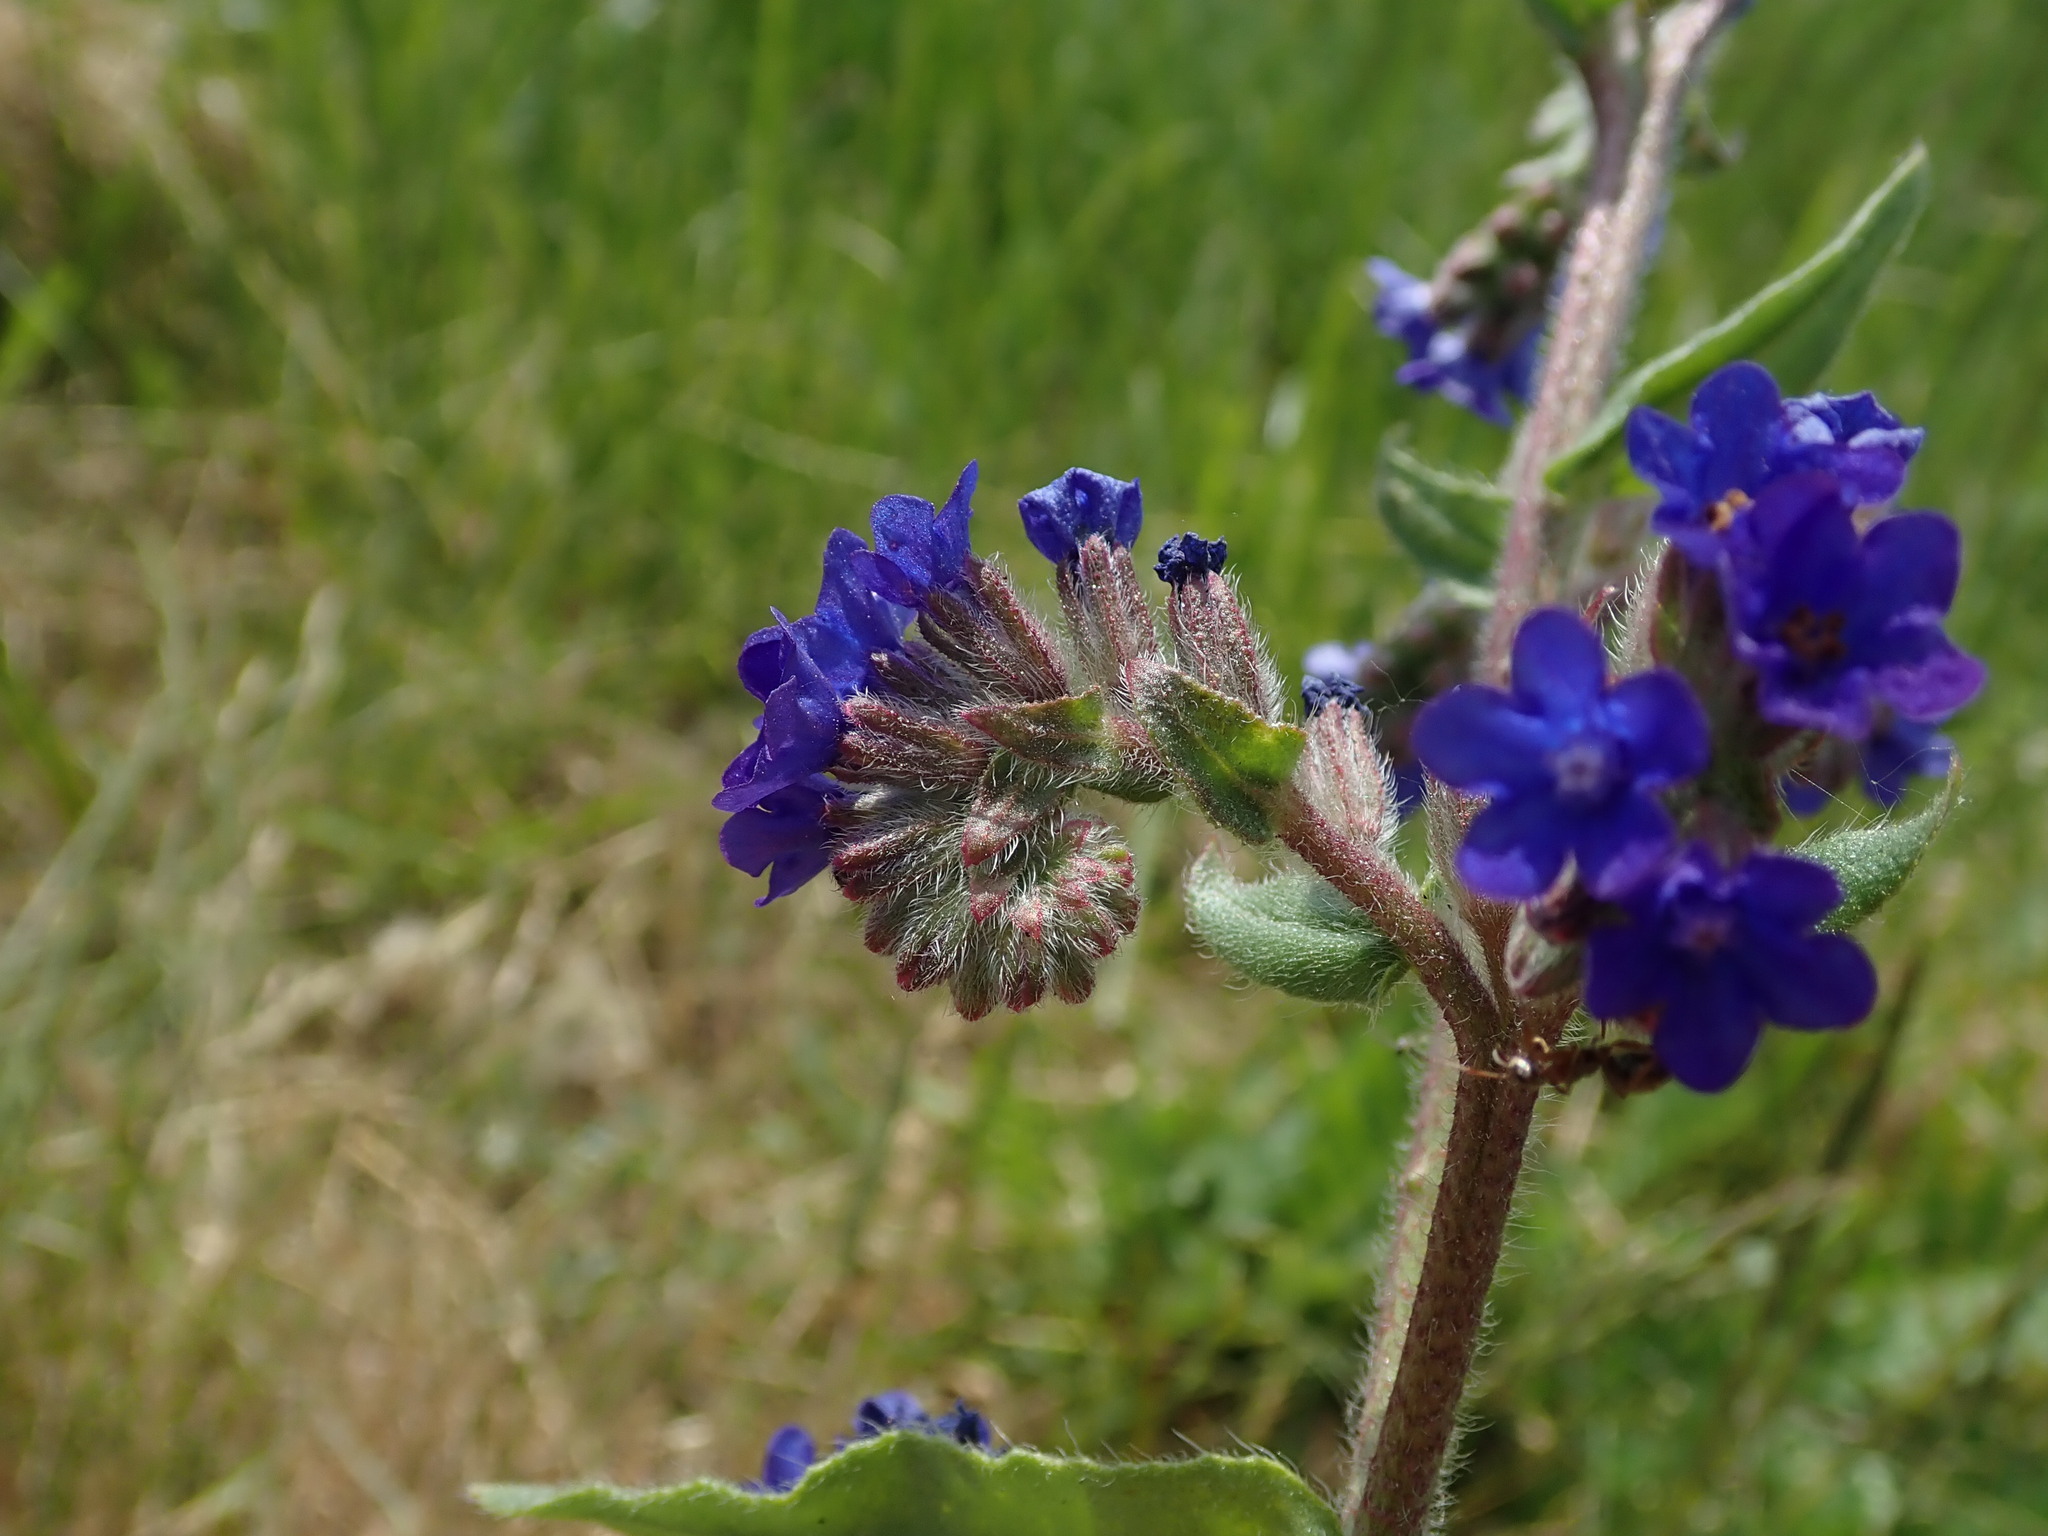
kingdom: Plantae
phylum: Tracheophyta
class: Magnoliopsida
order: Boraginales
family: Boraginaceae
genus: Anchusa
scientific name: Anchusa officinalis
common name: Alkanet
